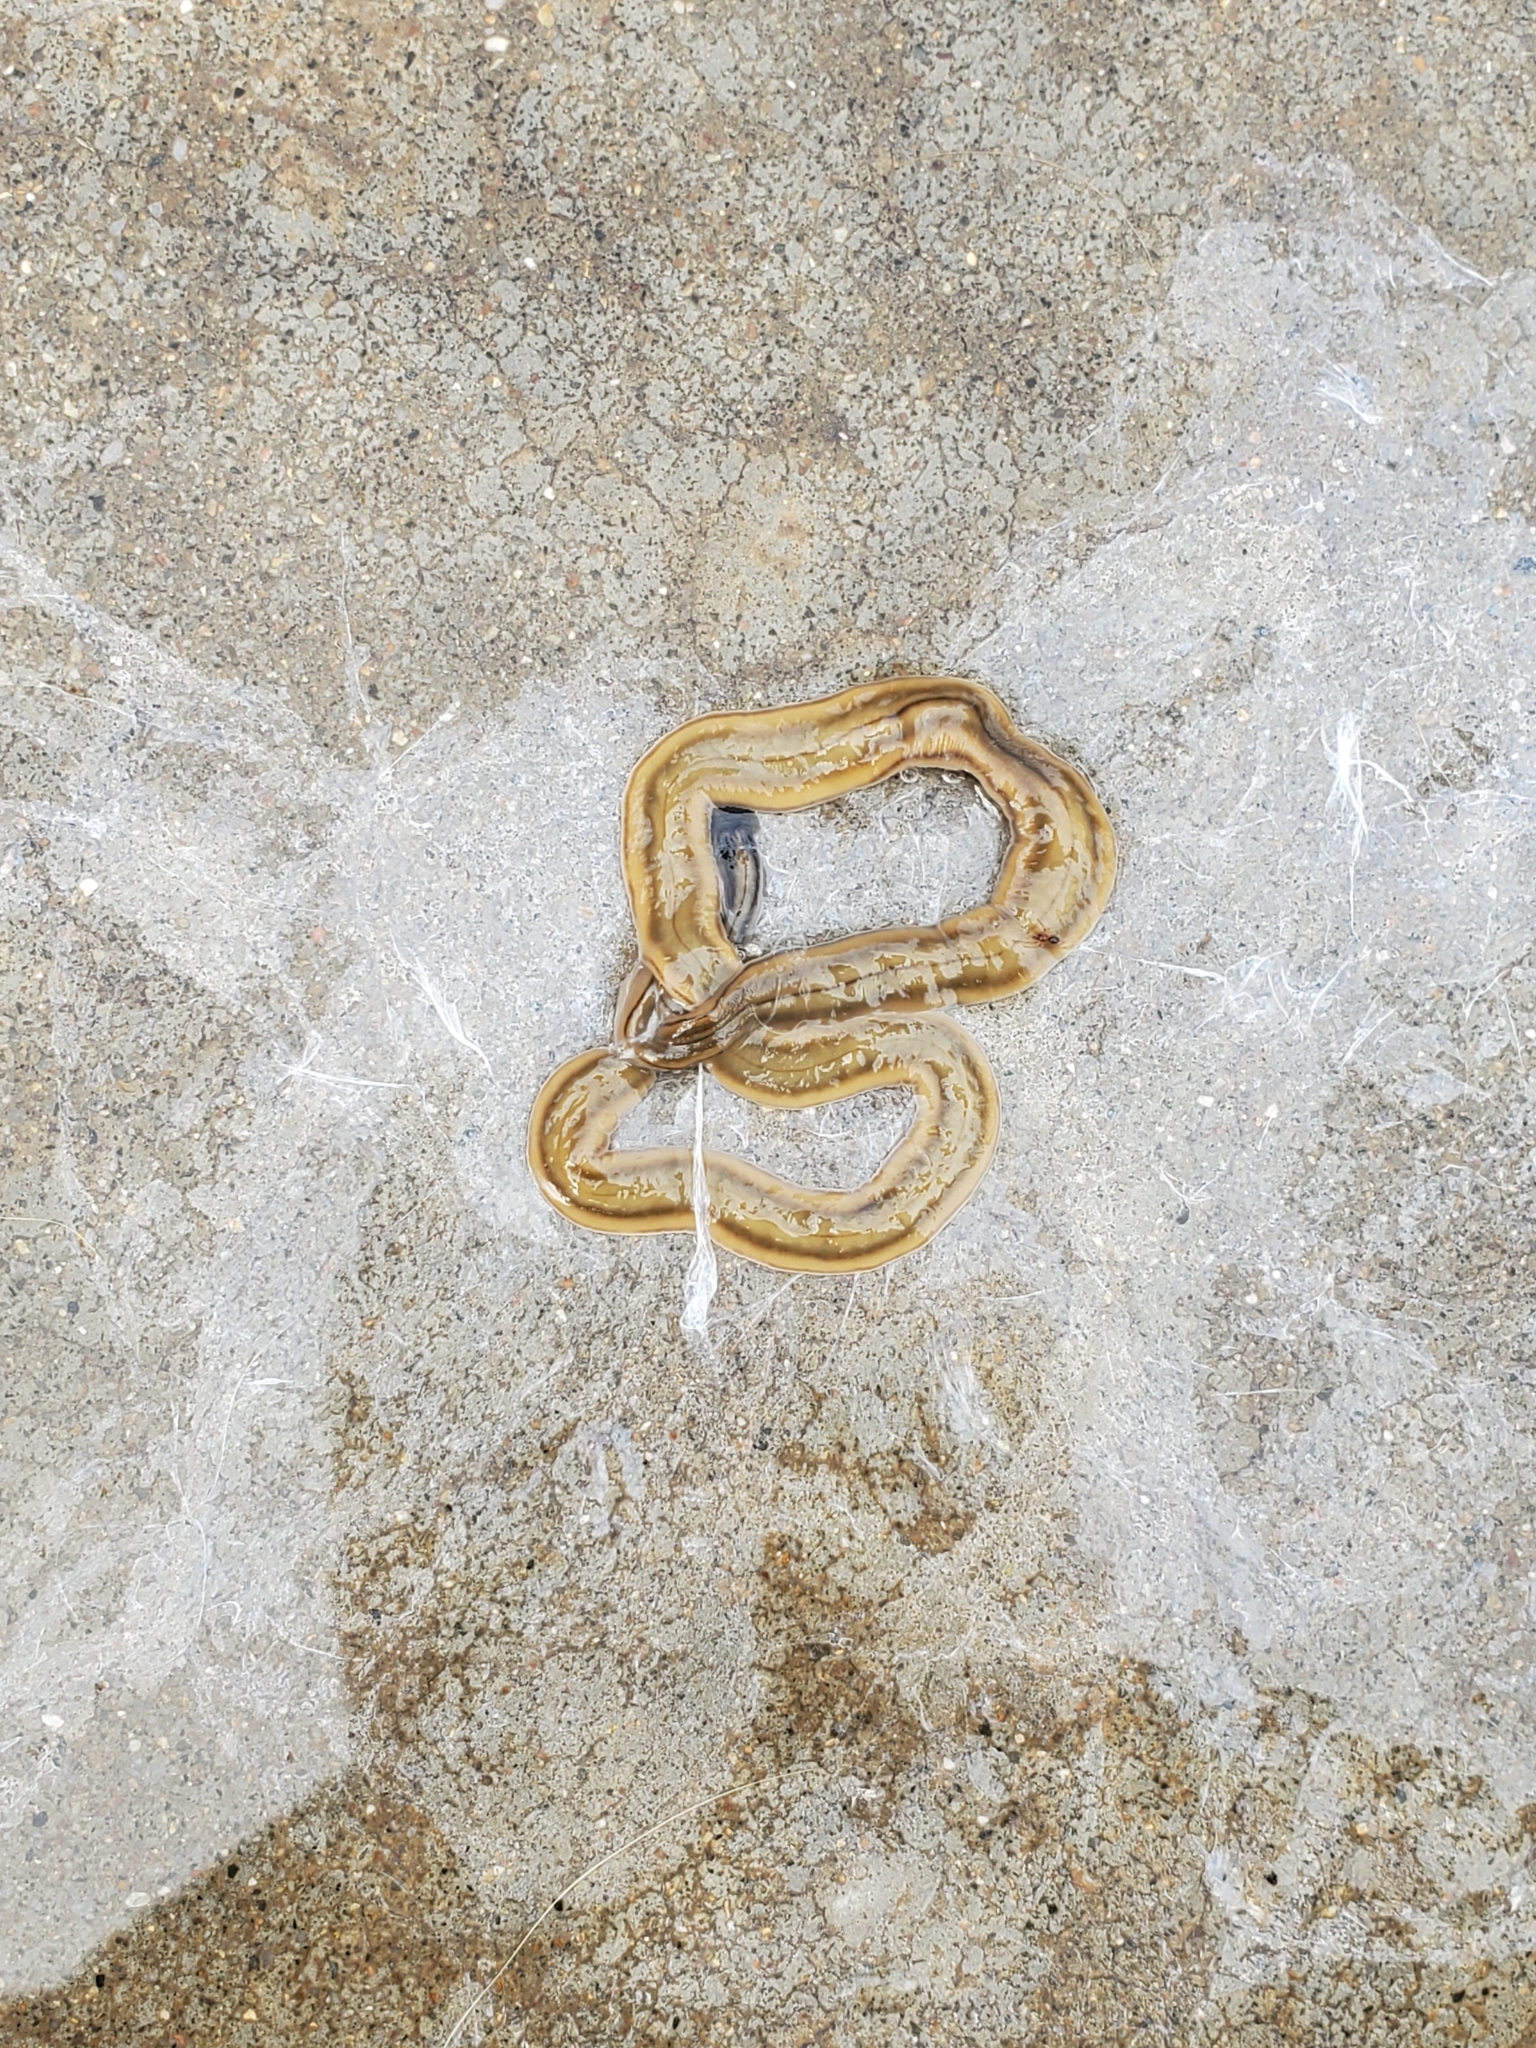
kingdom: Animalia
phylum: Platyhelminthes
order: Tricladida
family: Geoplanidae
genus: Bipalium
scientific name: Bipalium kewense
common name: Hammerhead flatworm
